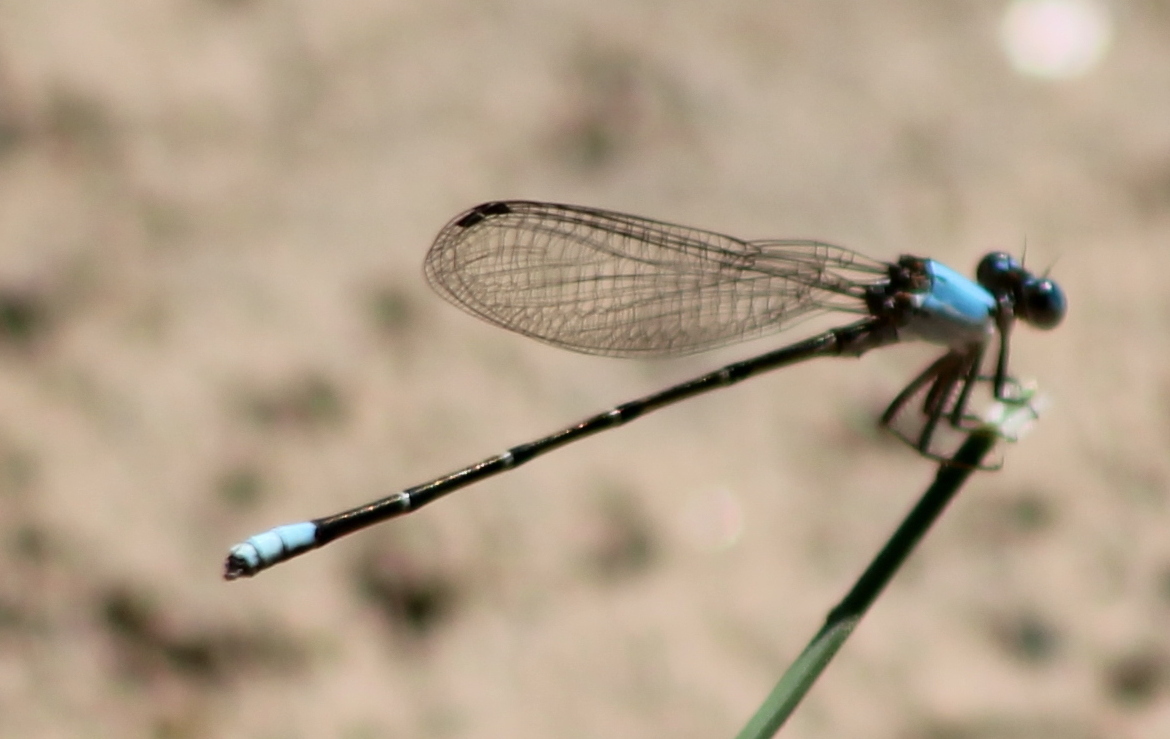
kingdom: Animalia
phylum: Arthropoda
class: Insecta
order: Odonata
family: Coenagrionidae
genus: Argia
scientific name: Argia apicalis
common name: Blue-fronted dancer
